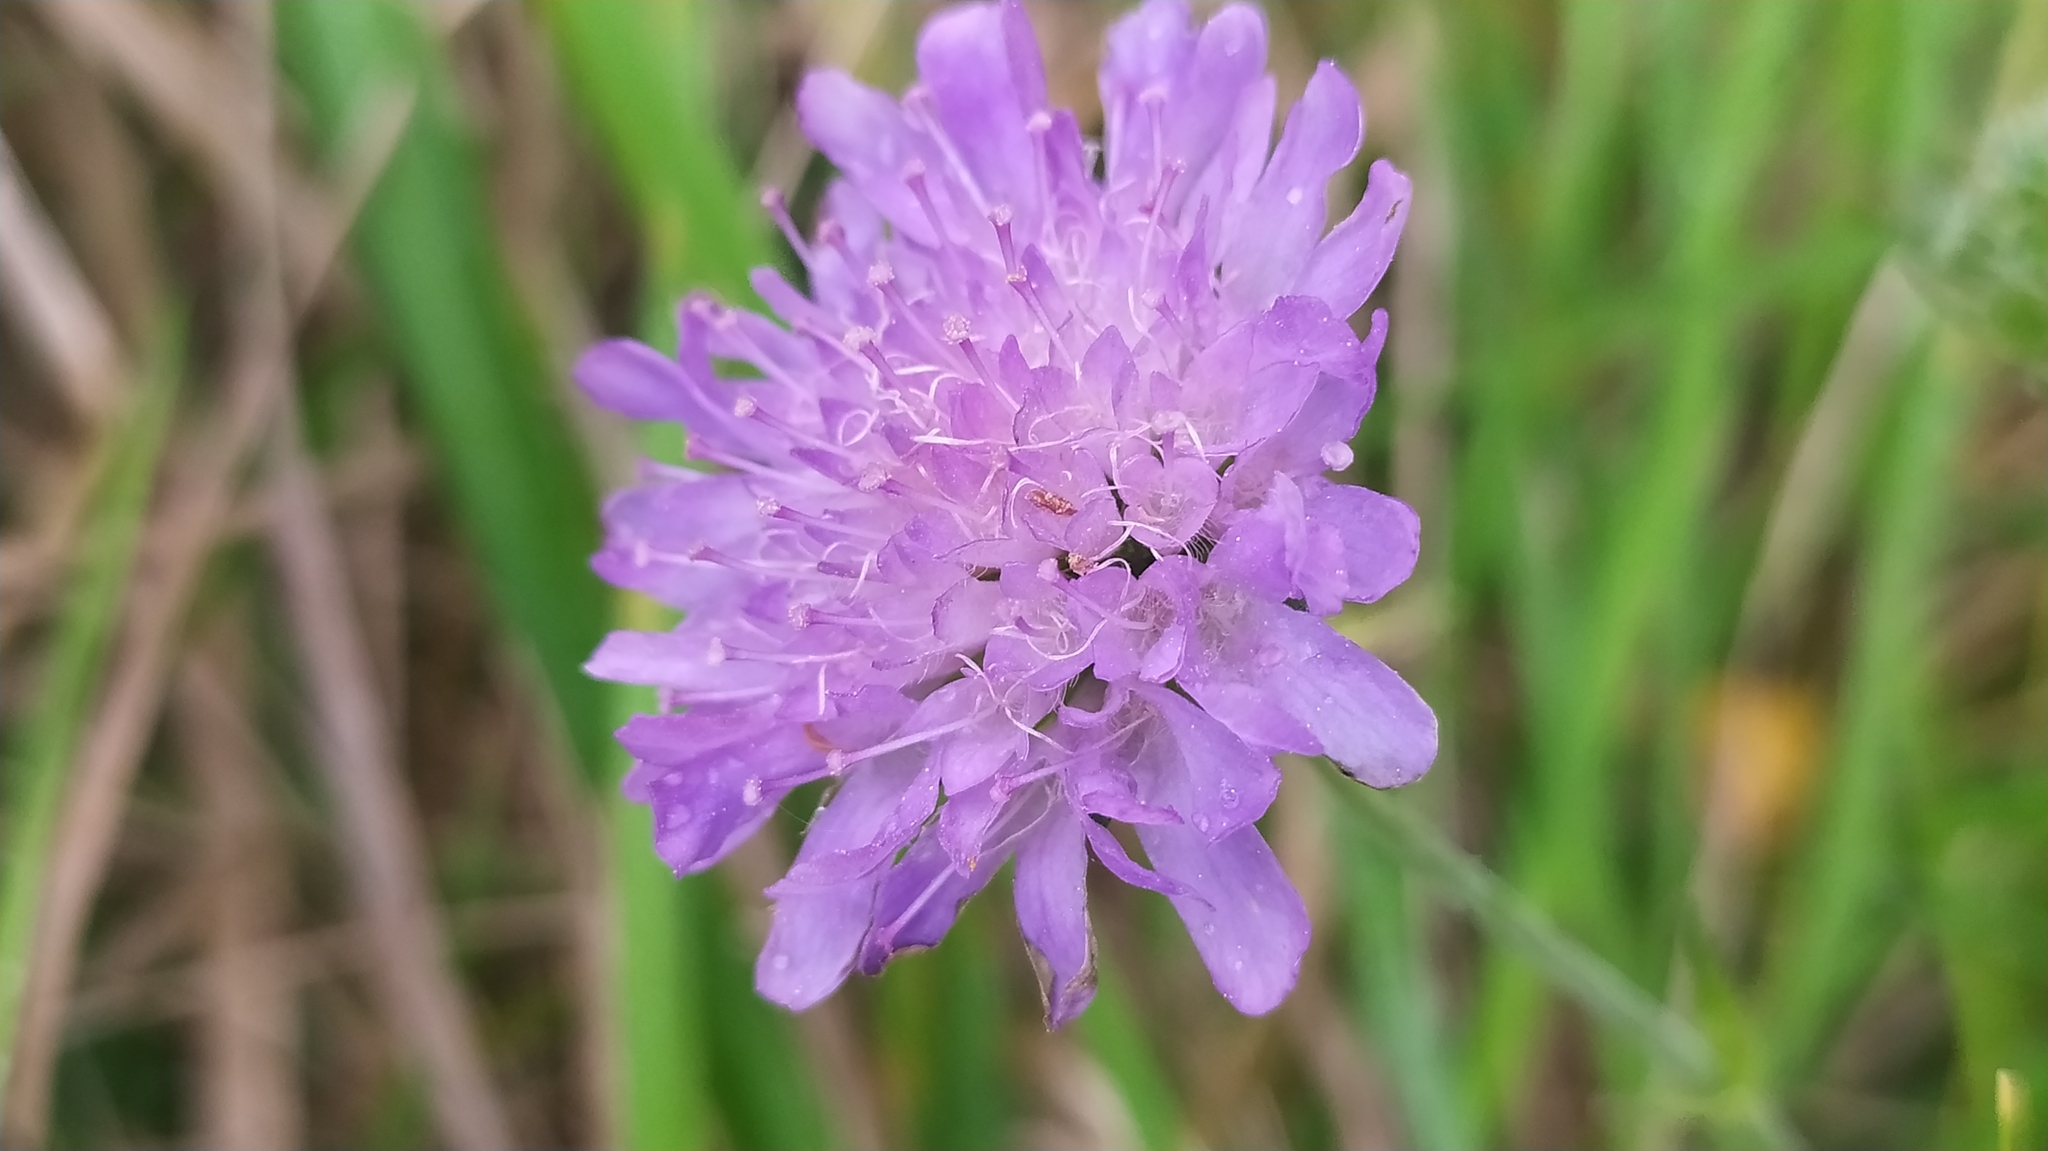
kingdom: Plantae
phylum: Tracheophyta
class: Magnoliopsida
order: Dipsacales
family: Caprifoliaceae
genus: Knautia
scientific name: Knautia arvensis
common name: Field scabiosa
